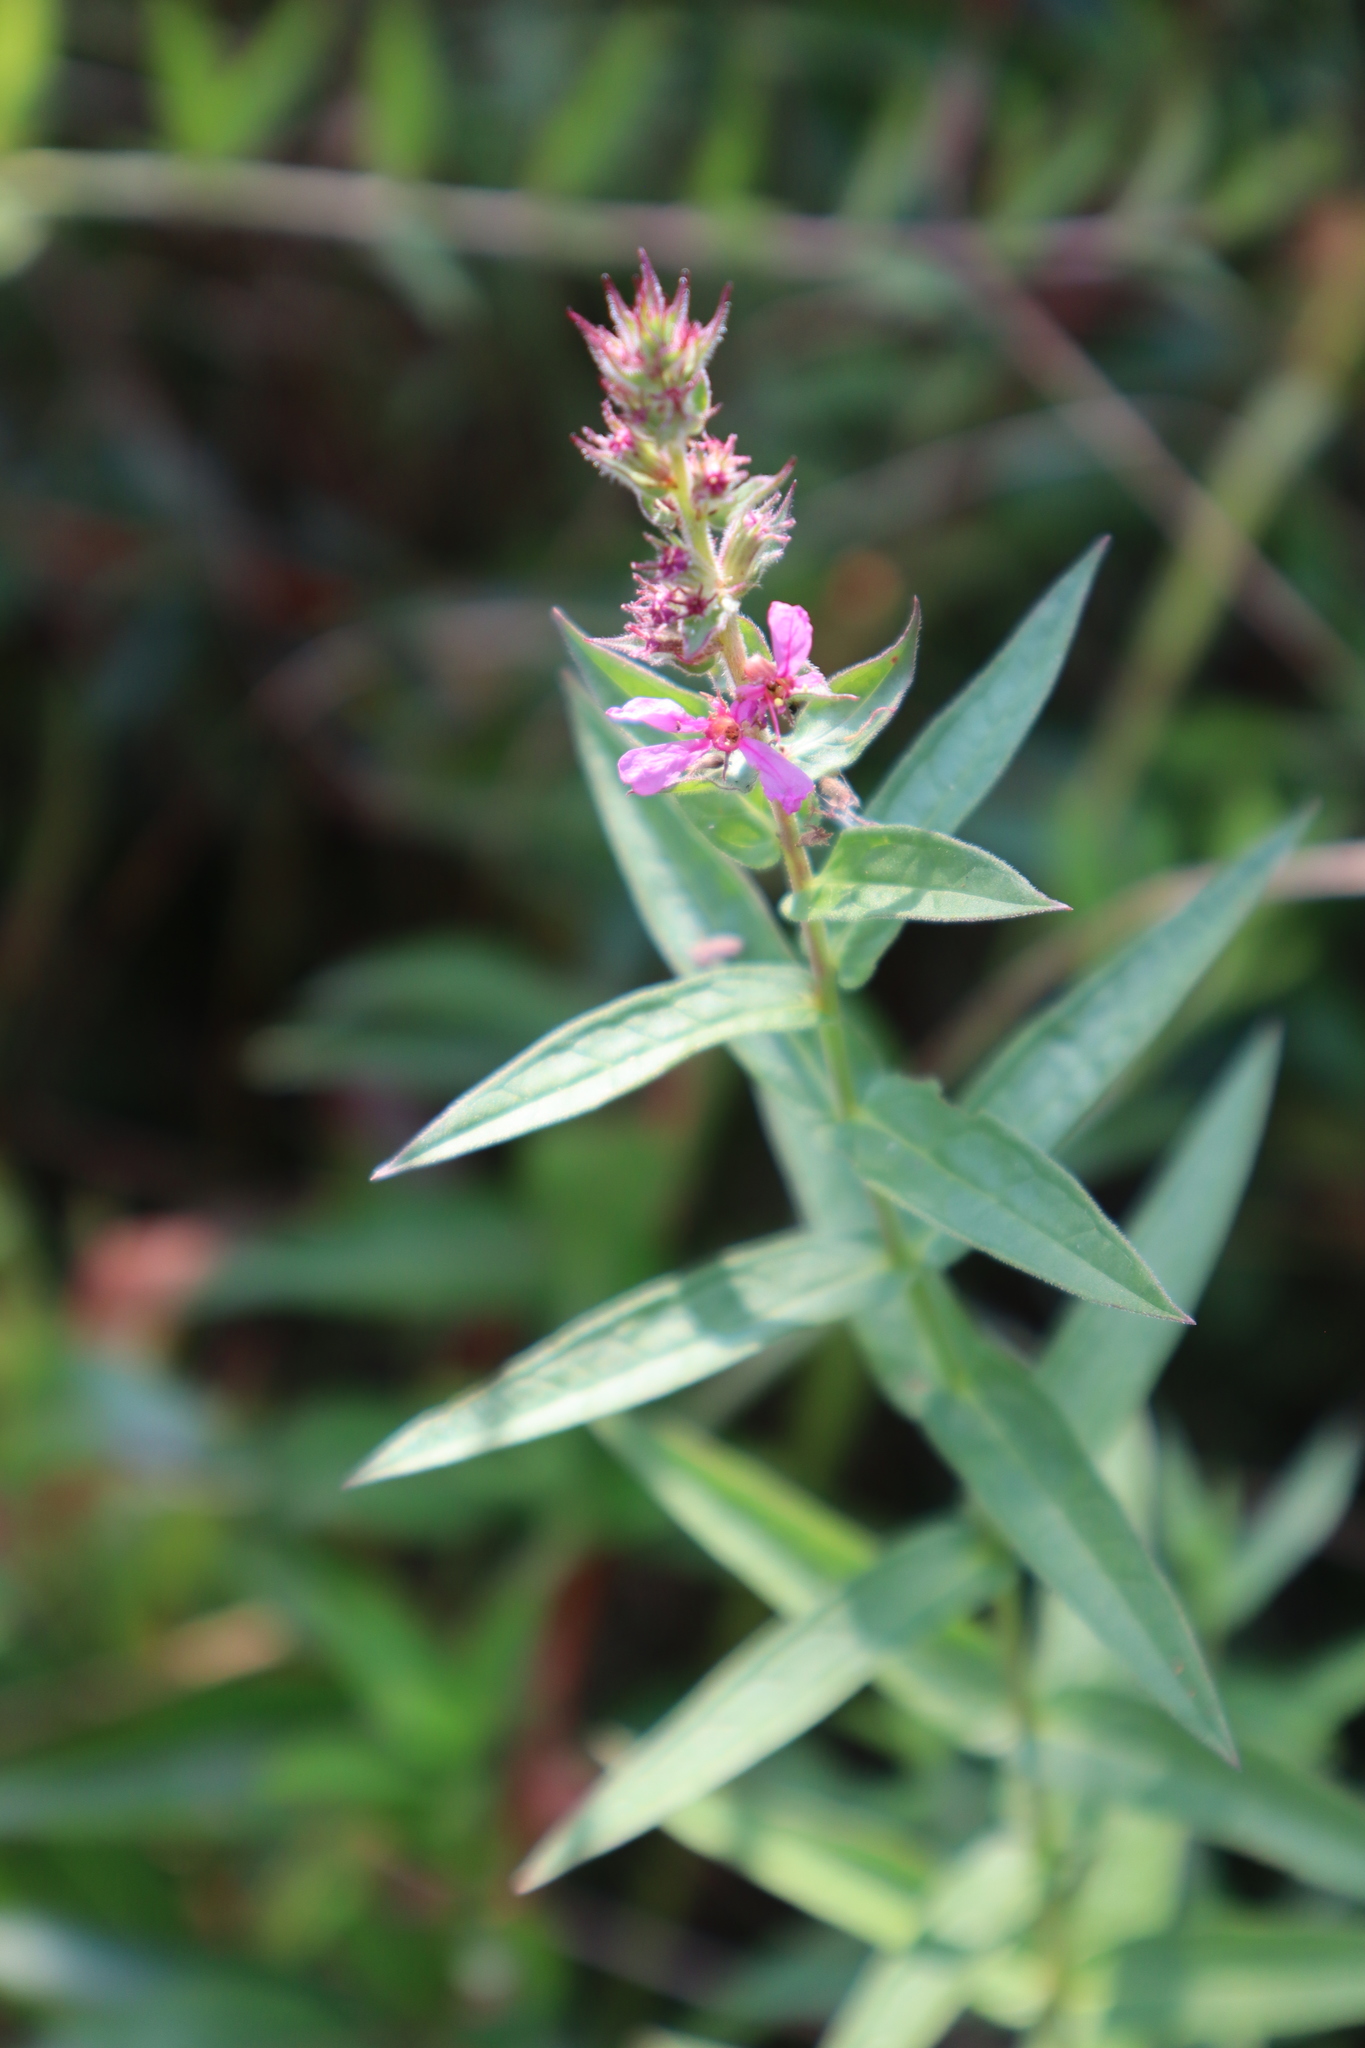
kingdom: Plantae
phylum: Tracheophyta
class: Magnoliopsida
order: Myrtales
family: Lythraceae
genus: Lythrum
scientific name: Lythrum salicaria
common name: Purple loosestrife
